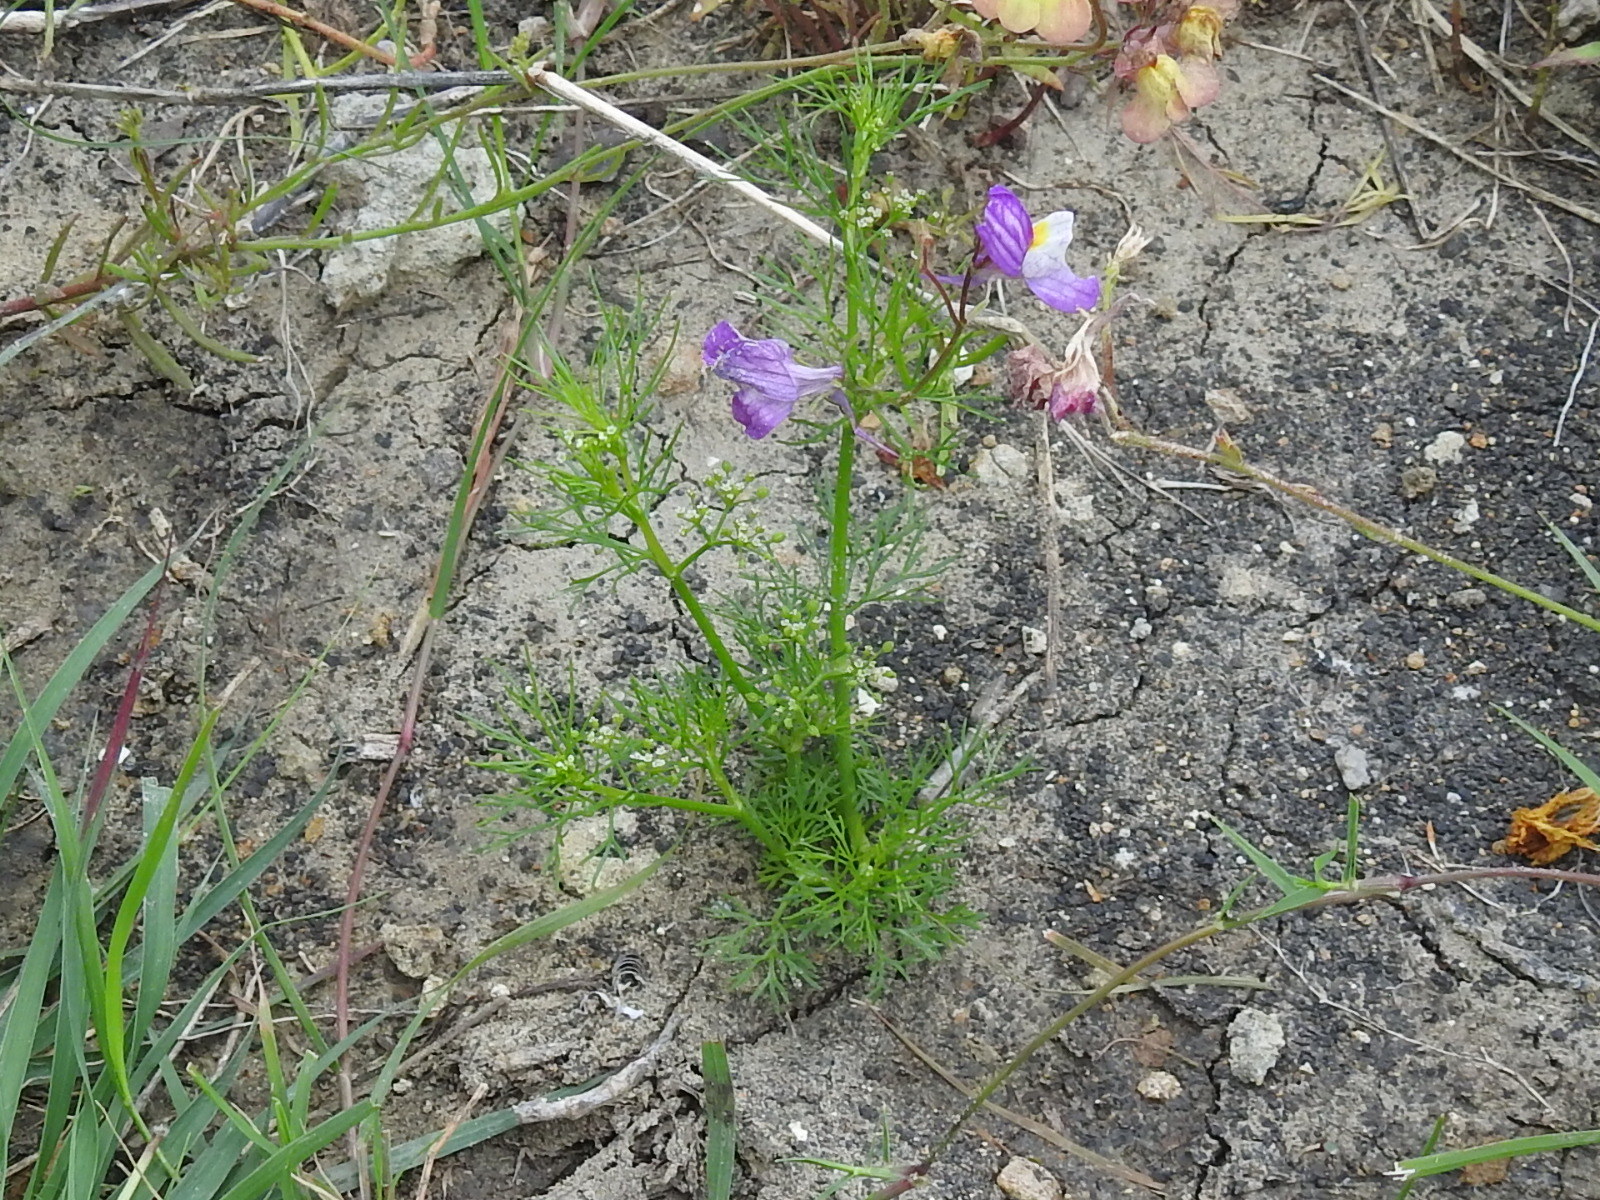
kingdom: Plantae
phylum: Tracheophyta
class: Magnoliopsida
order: Apiales
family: Apiaceae
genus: Cyclospermum
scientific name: Cyclospermum leptophyllum
